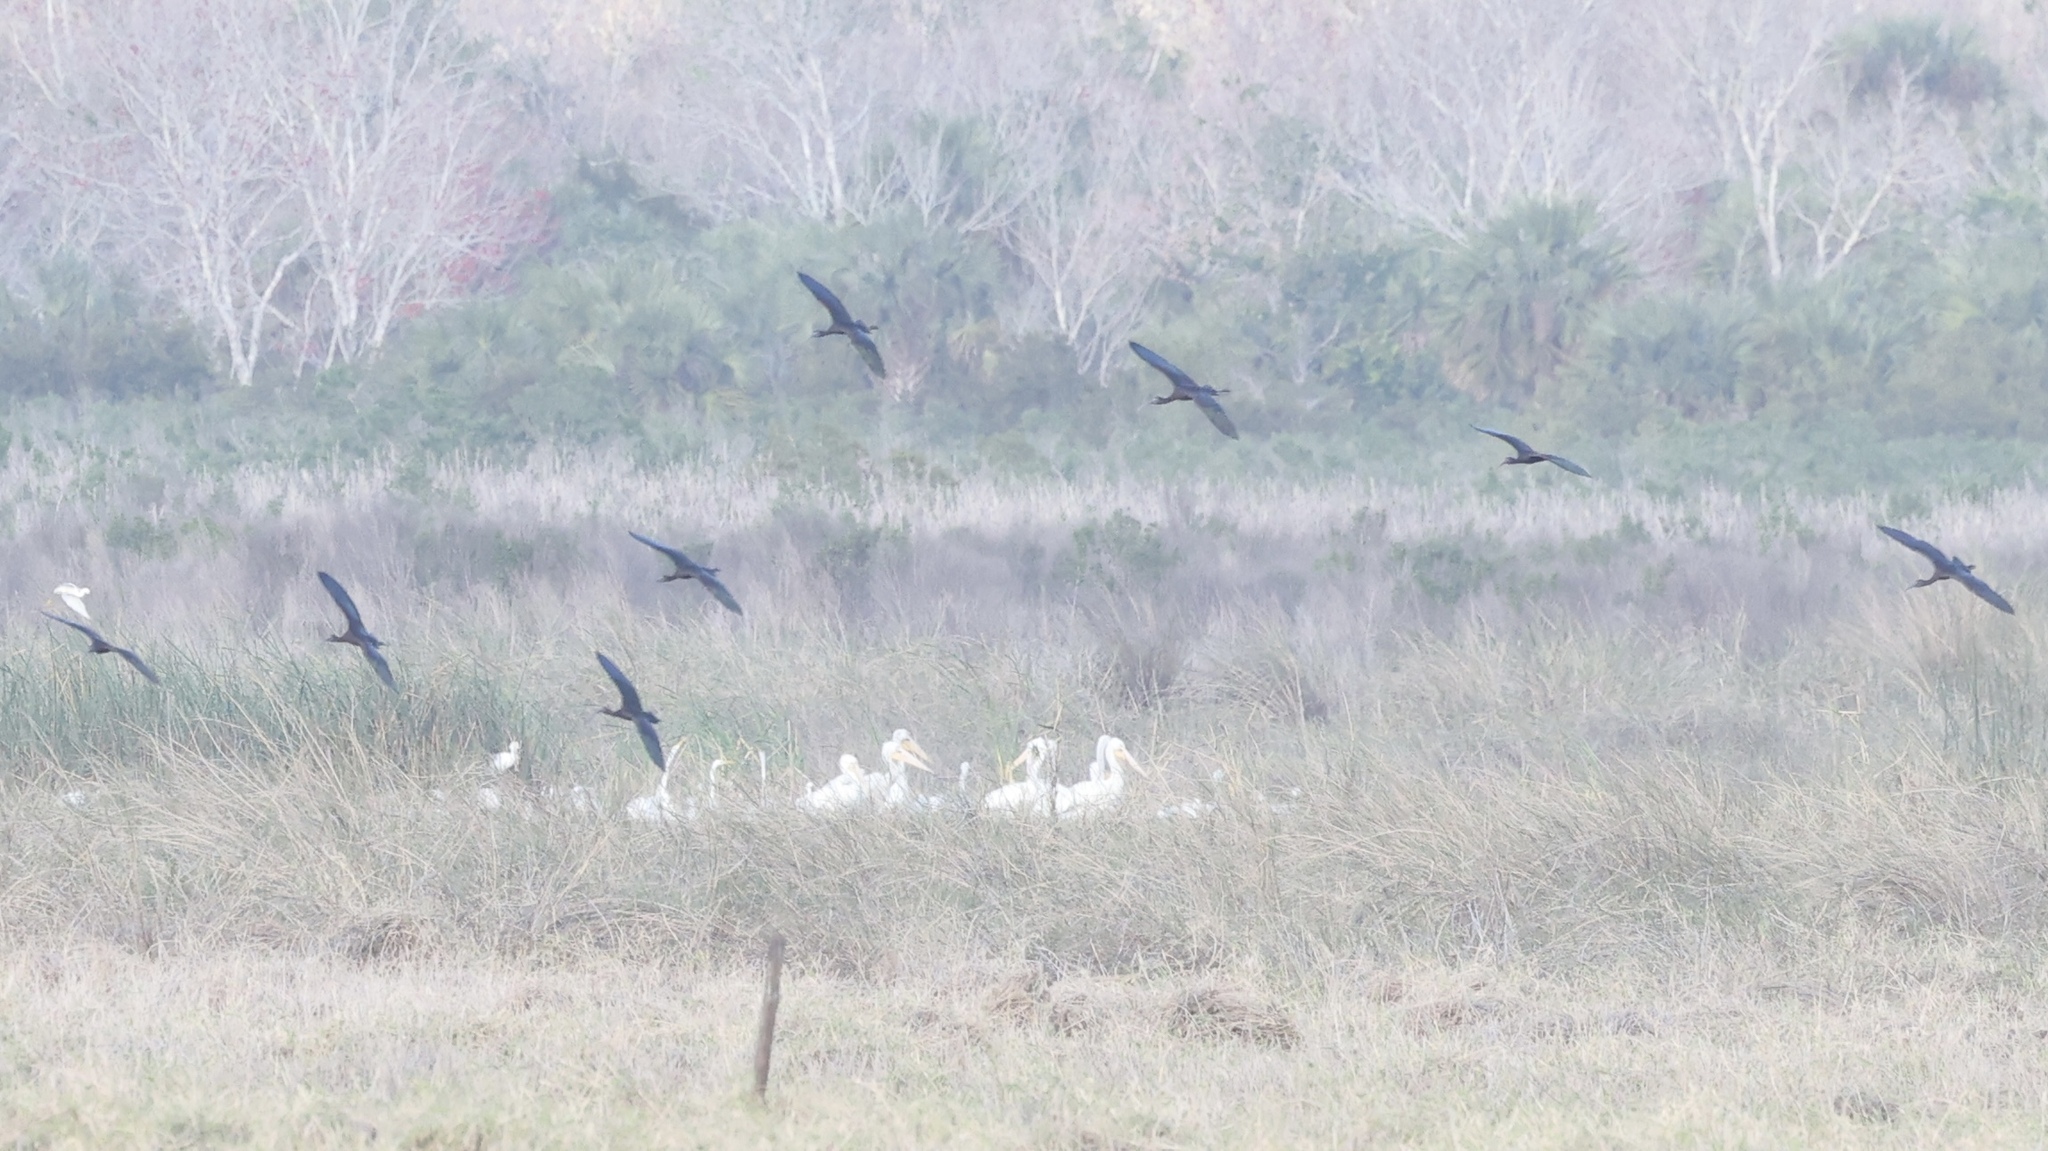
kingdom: Animalia
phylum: Chordata
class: Aves
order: Pelecaniformes
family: Threskiornithidae
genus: Plegadis
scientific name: Plegadis falcinellus
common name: Glossy ibis
